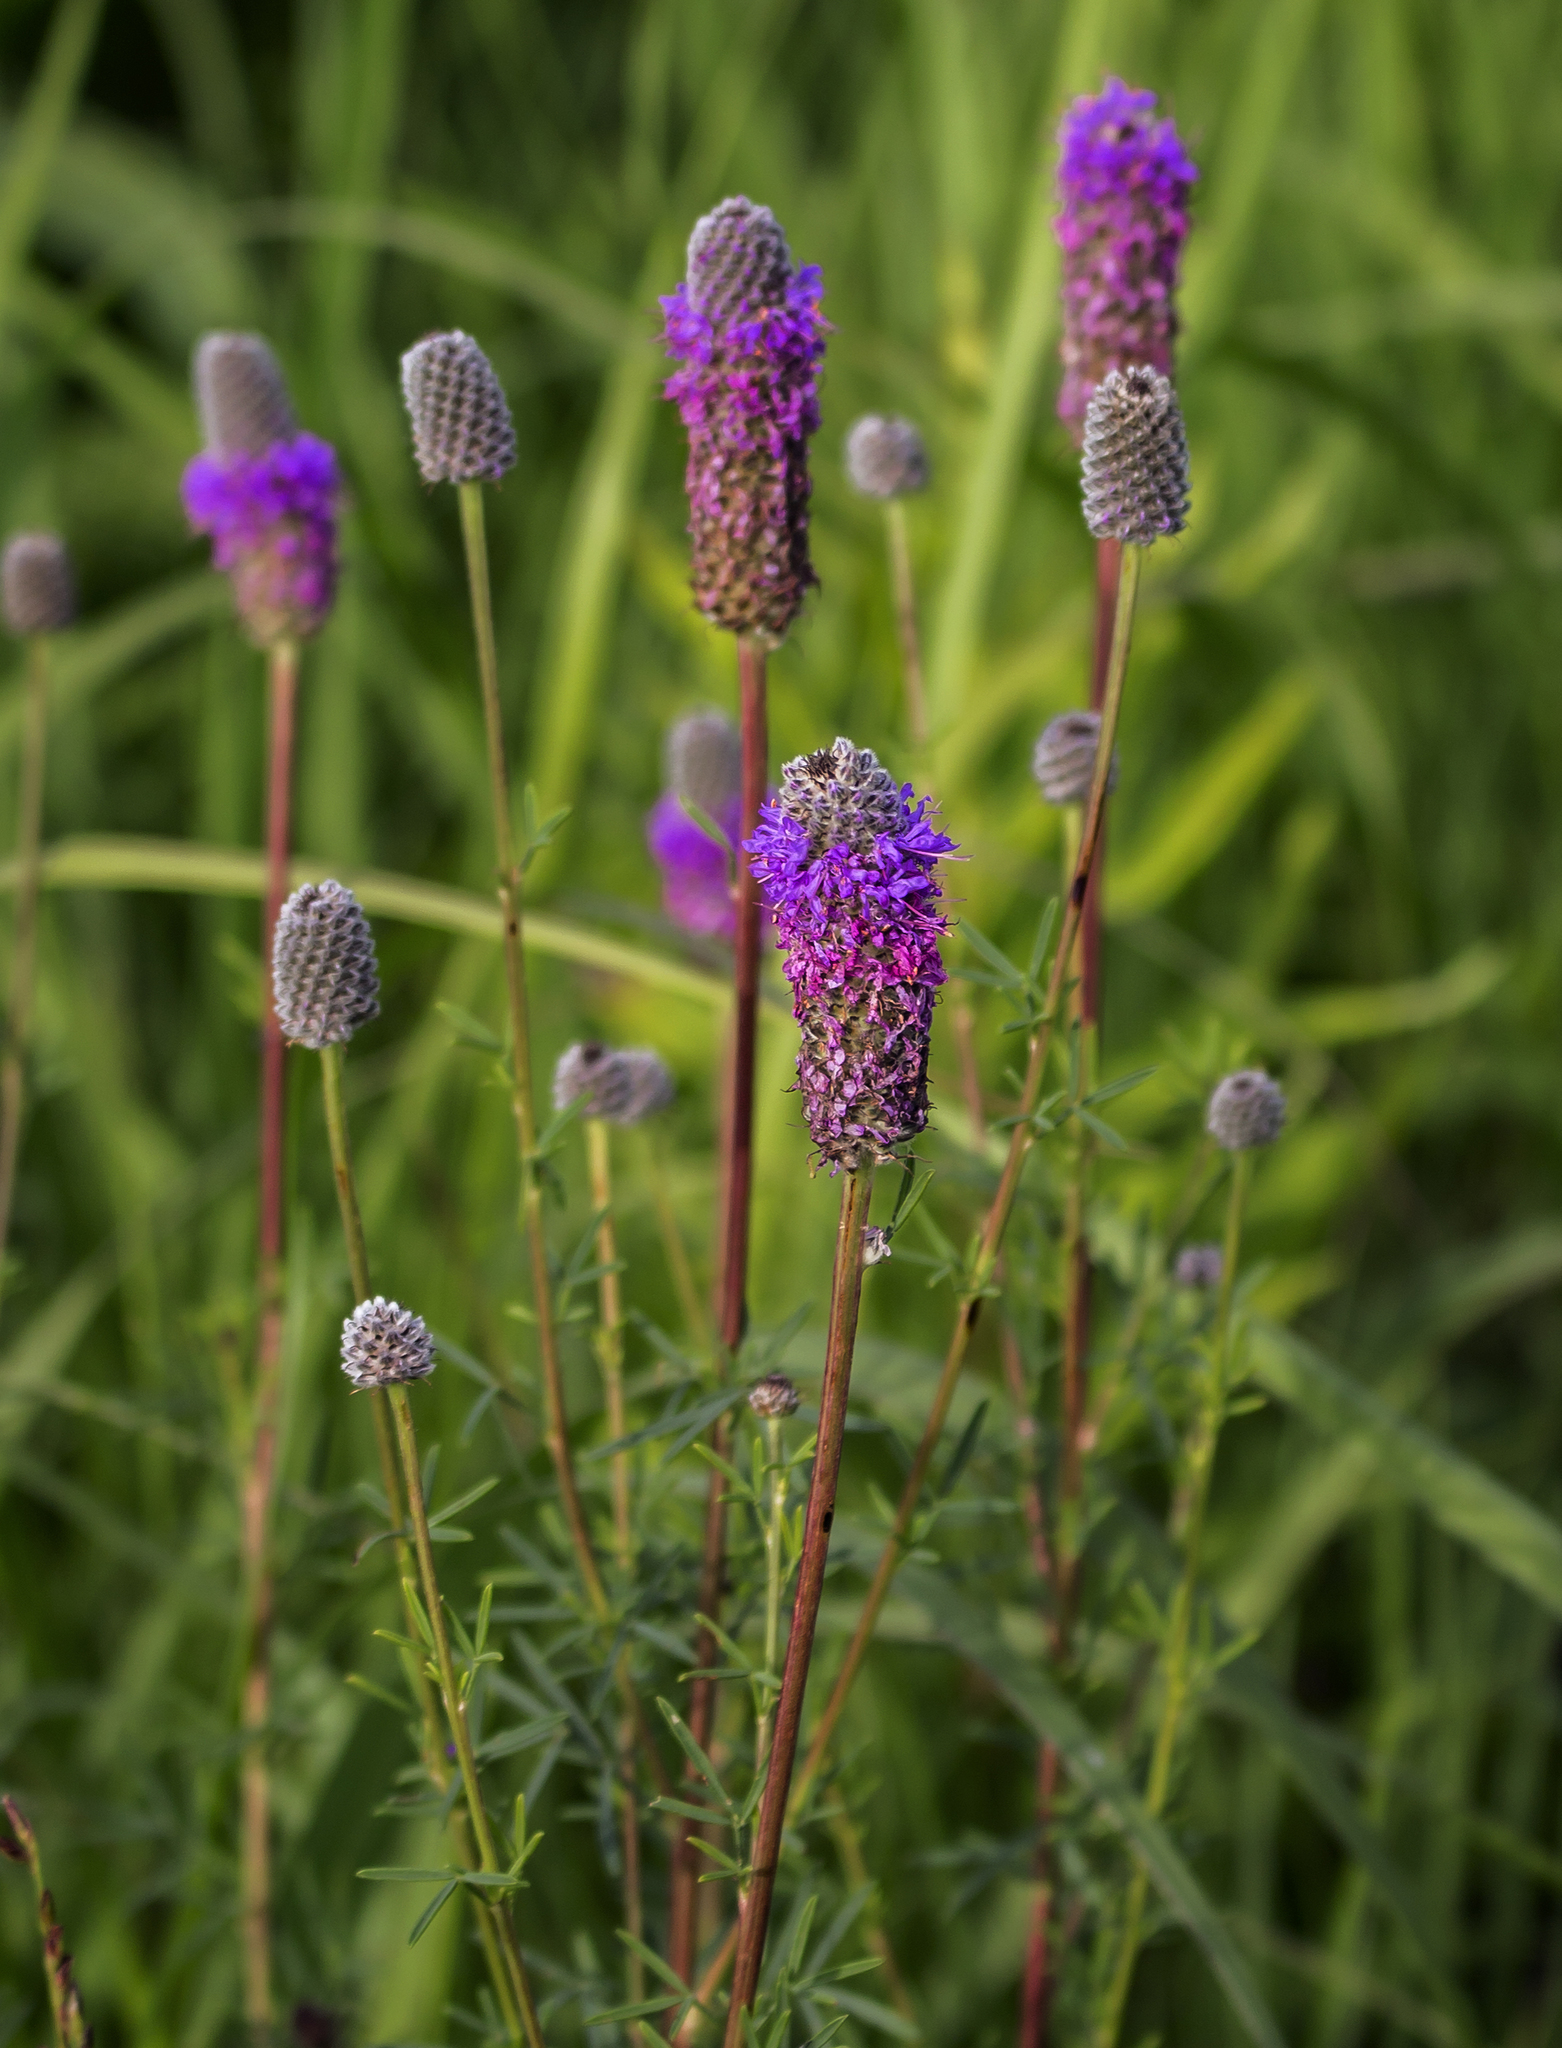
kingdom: Plantae
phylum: Tracheophyta
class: Magnoliopsida
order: Fabales
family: Fabaceae
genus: Dalea
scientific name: Dalea purpurea
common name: Purple prairie-clover
